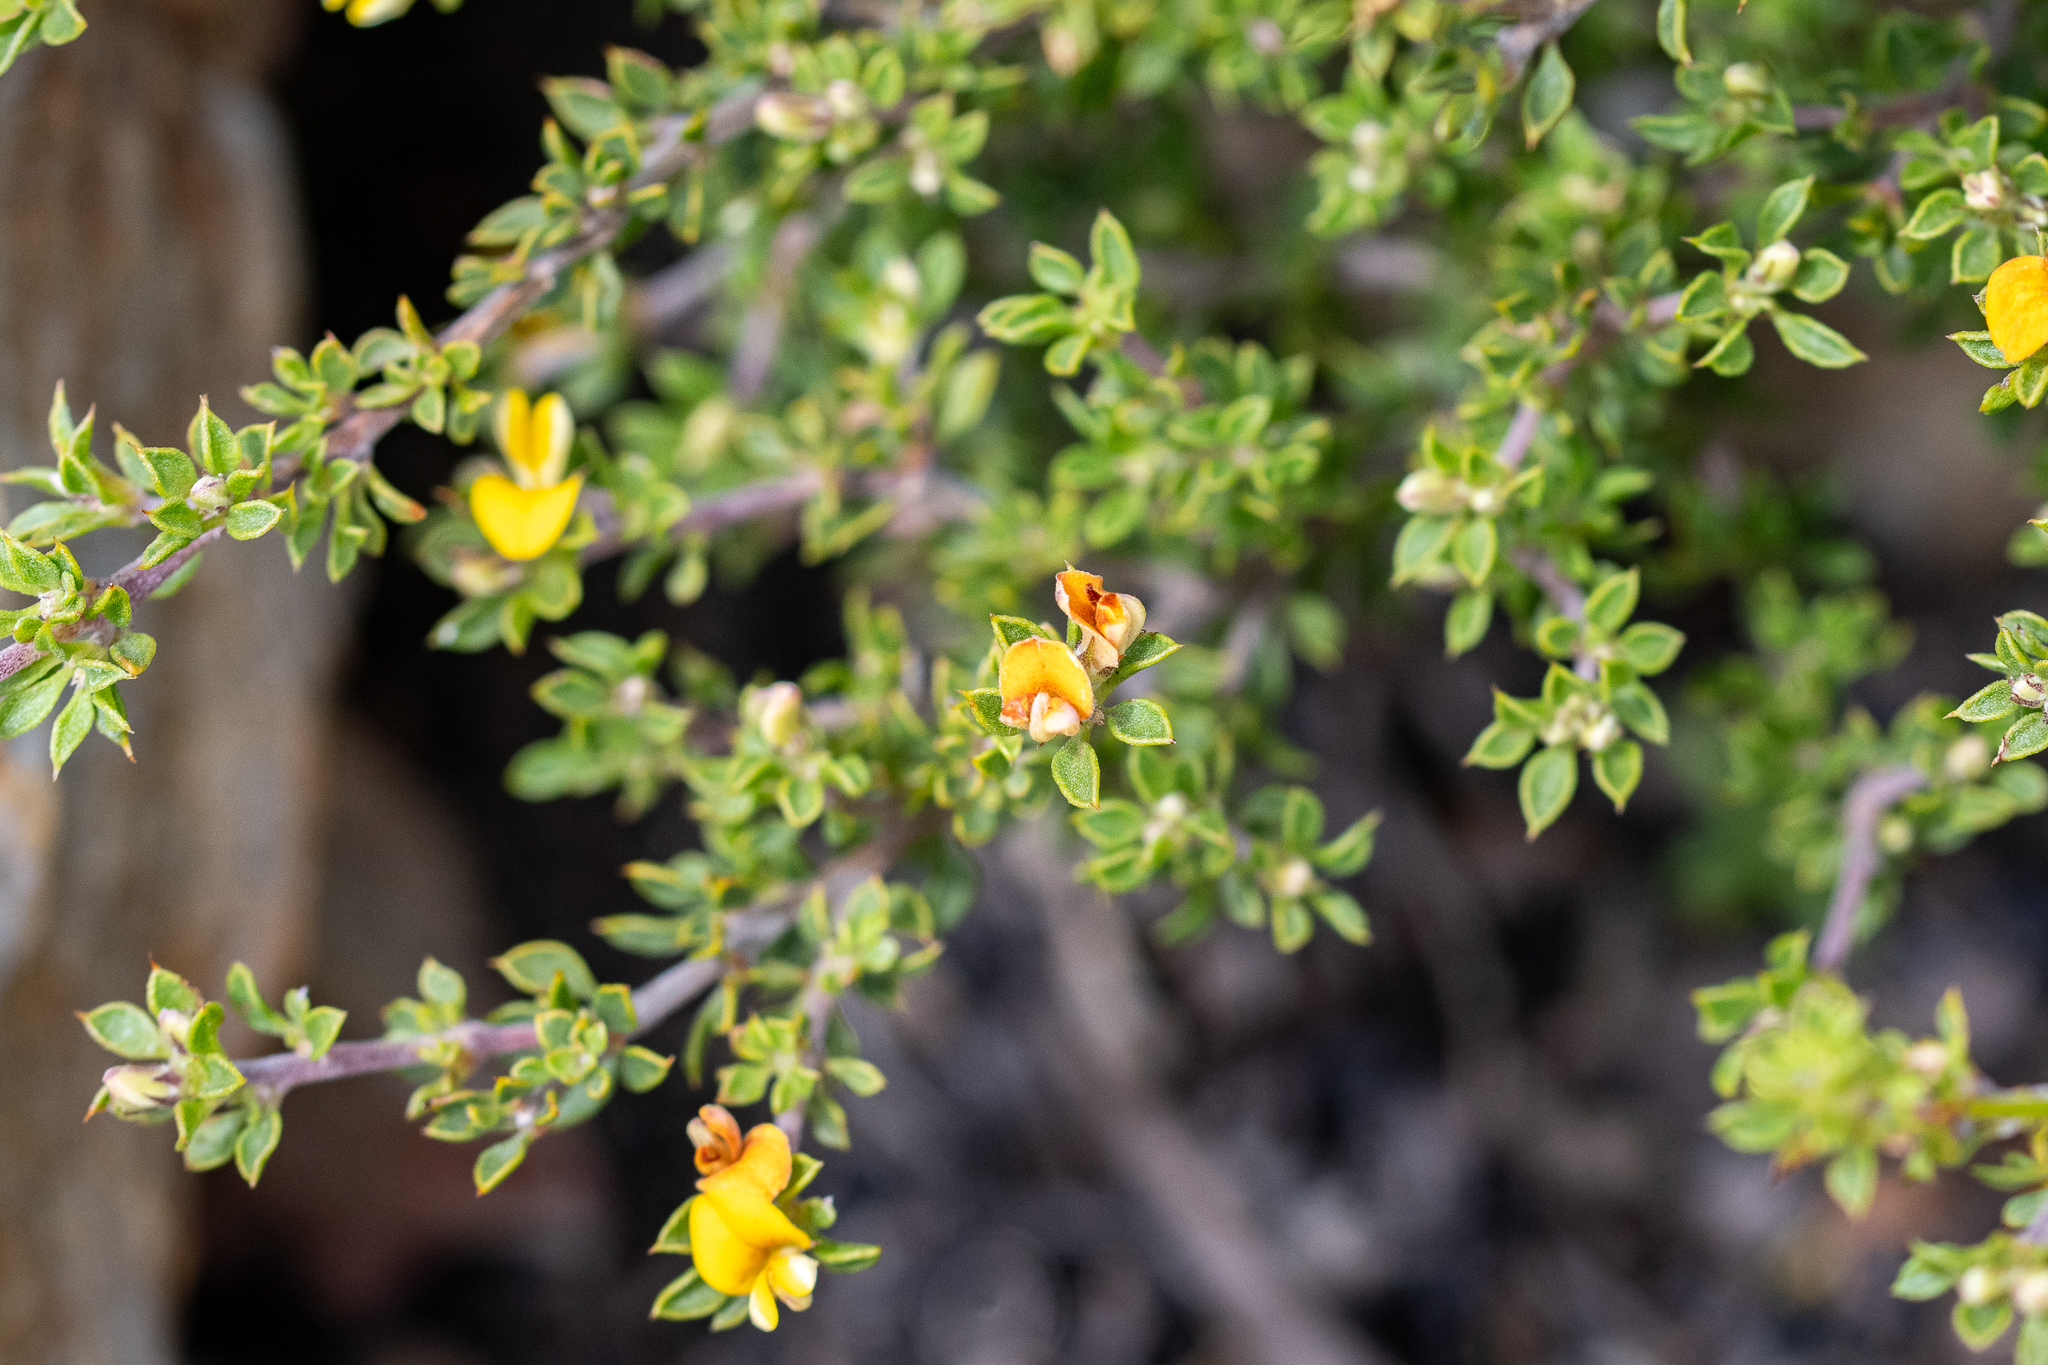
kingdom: Plantae
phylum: Tracheophyta
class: Magnoliopsida
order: Fabales
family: Fabaceae
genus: Aspalathus
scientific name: Aspalathus marginata
